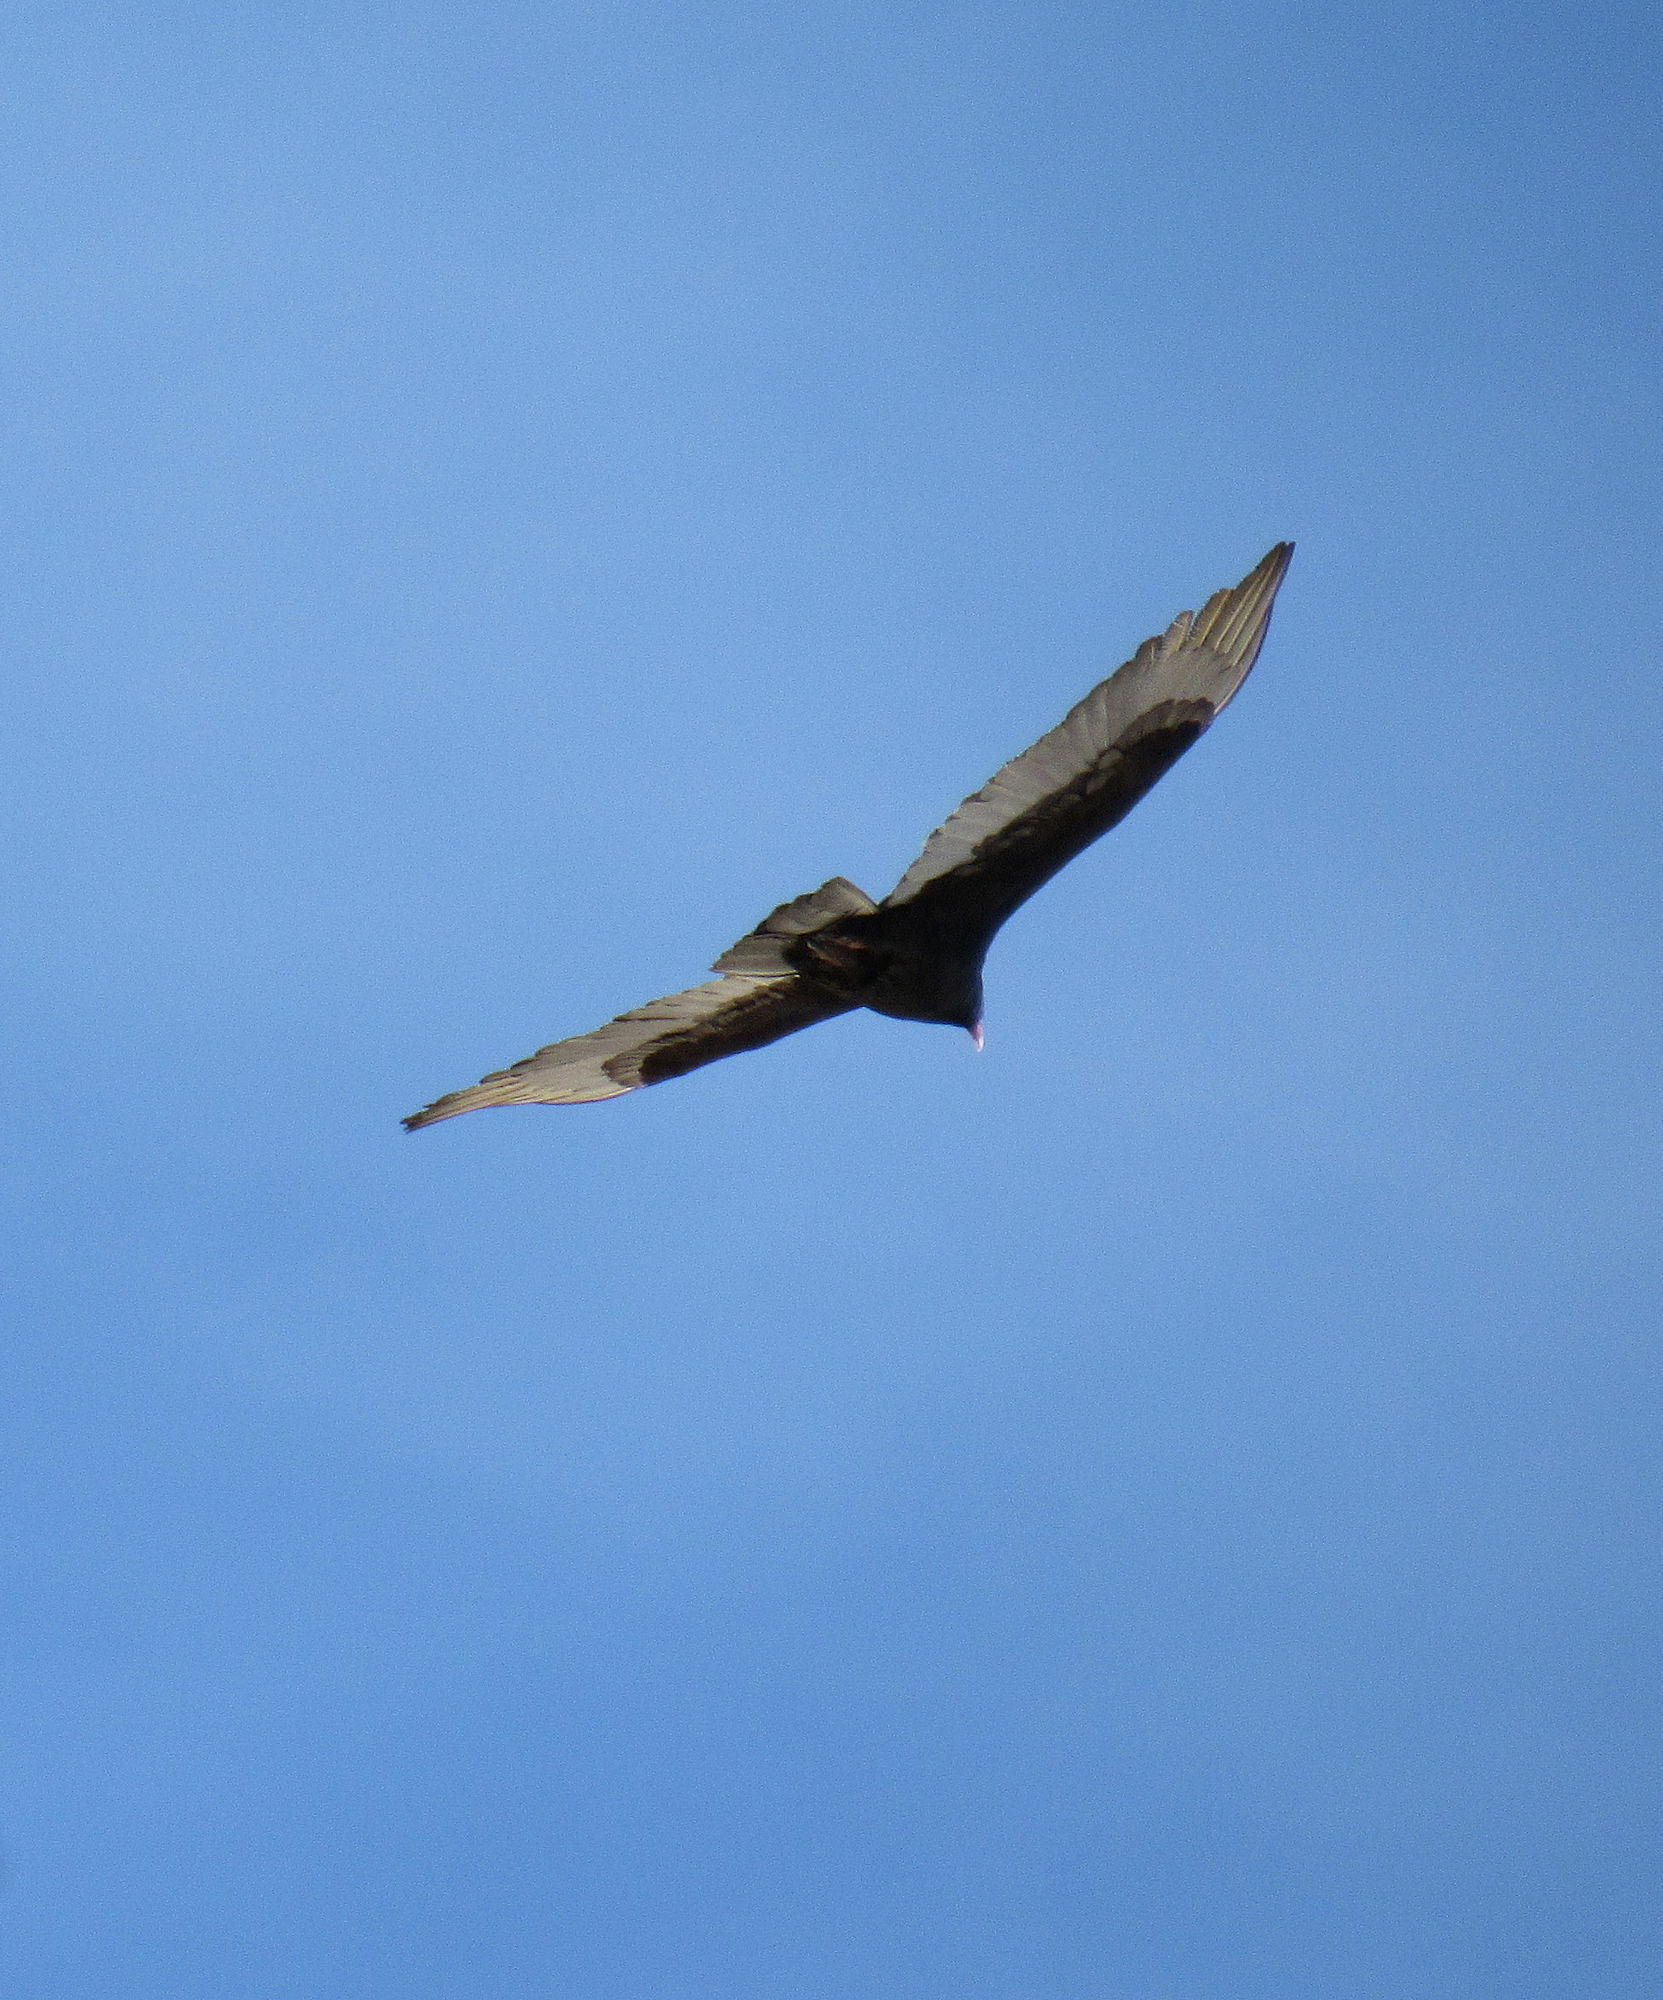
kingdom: Animalia
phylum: Chordata
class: Aves
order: Accipitriformes
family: Cathartidae
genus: Cathartes
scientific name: Cathartes aura
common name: Turkey vulture
